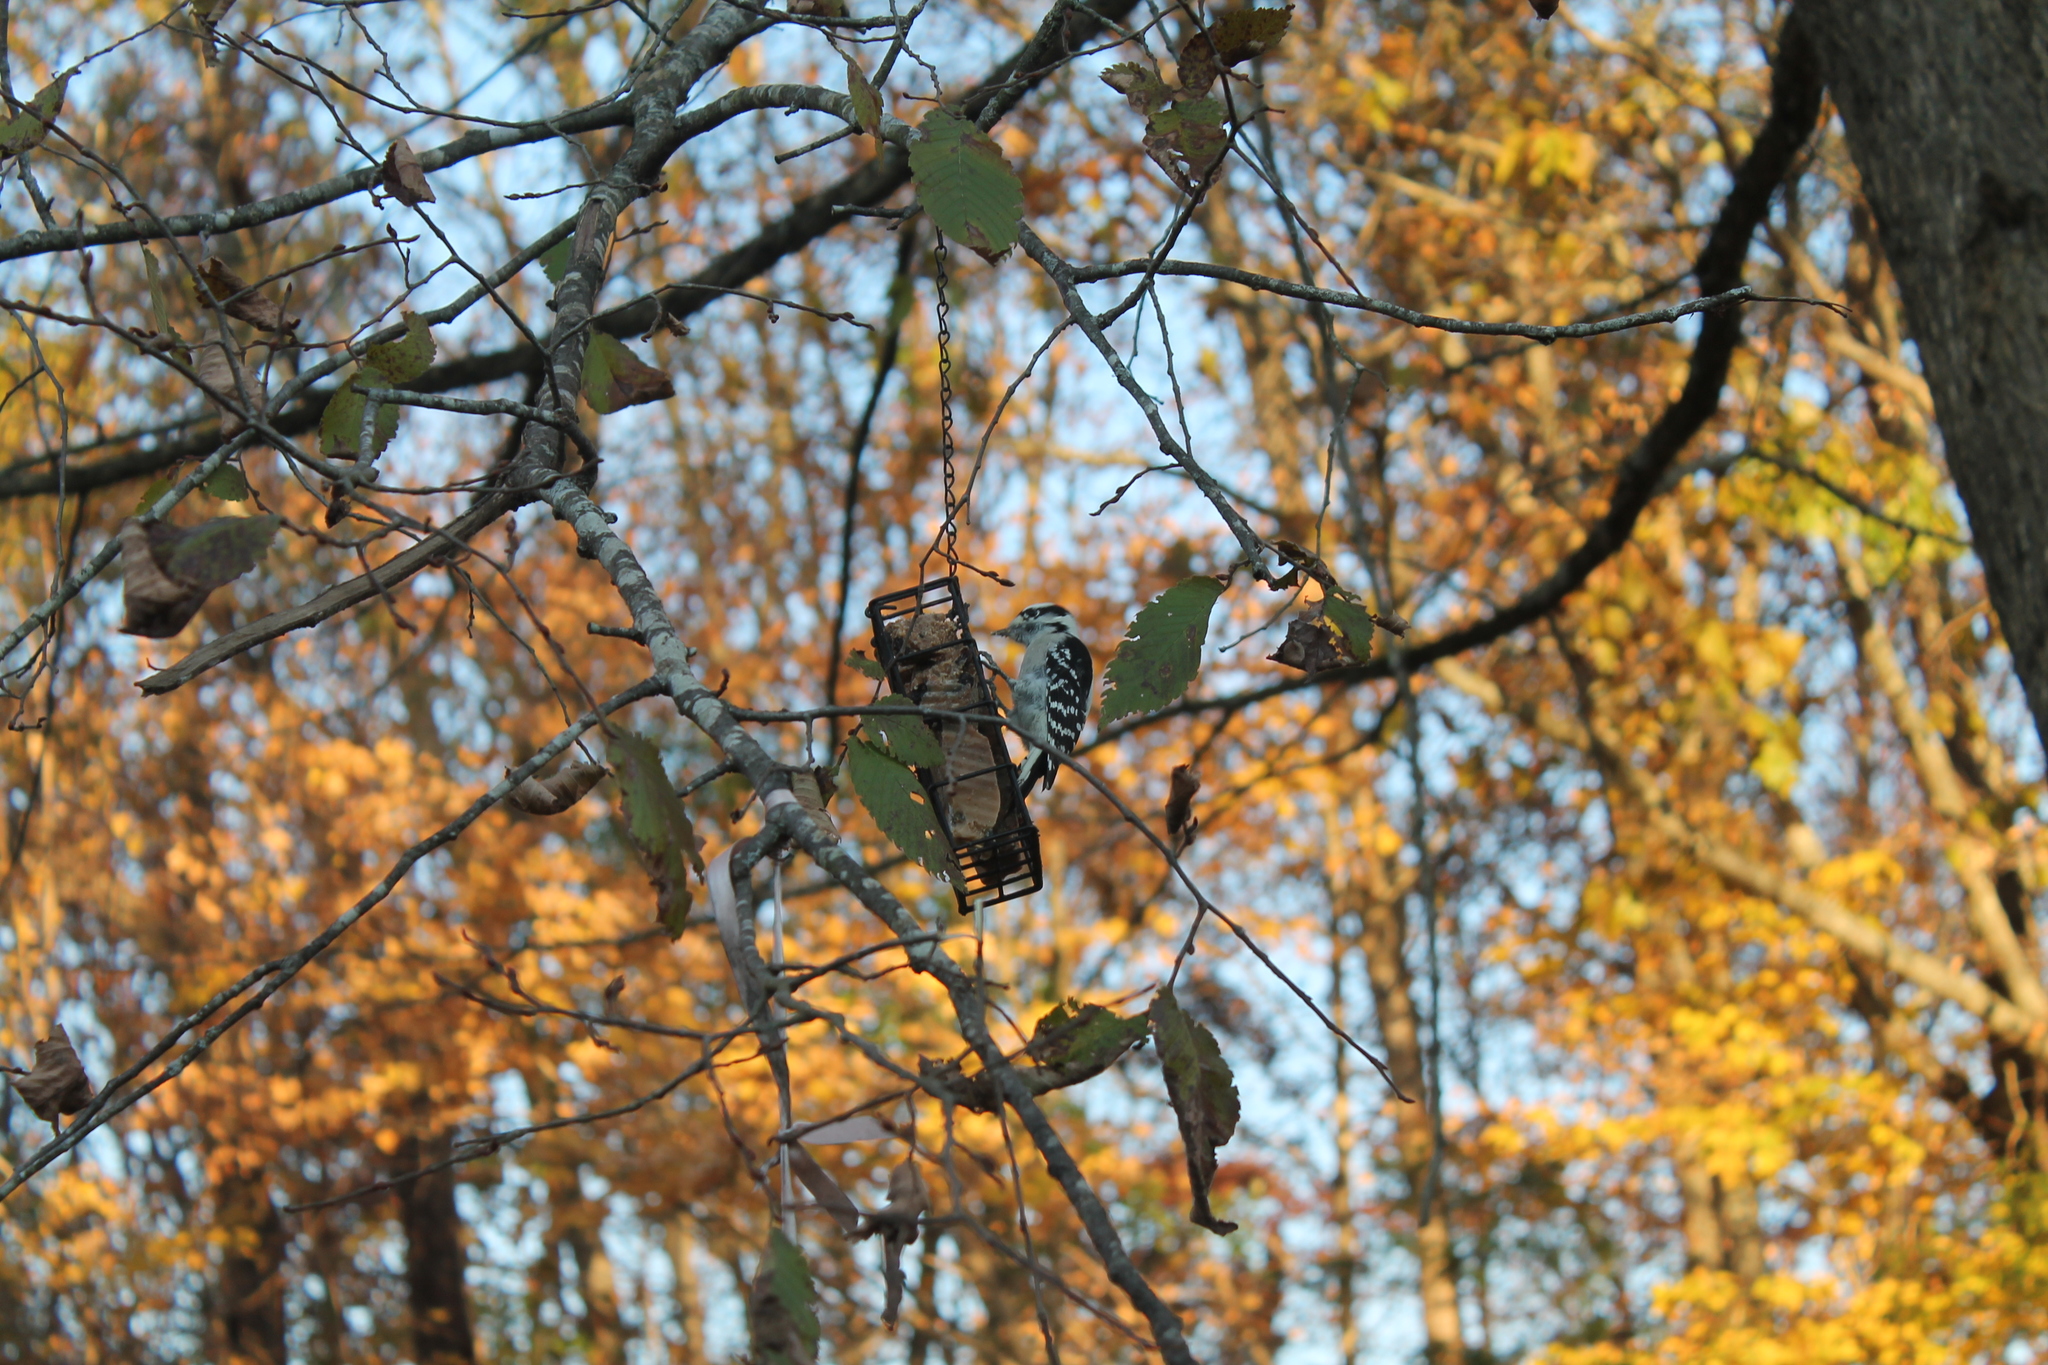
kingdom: Animalia
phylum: Chordata
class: Aves
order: Piciformes
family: Picidae
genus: Dryobates
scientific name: Dryobates pubescens
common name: Downy woodpecker
